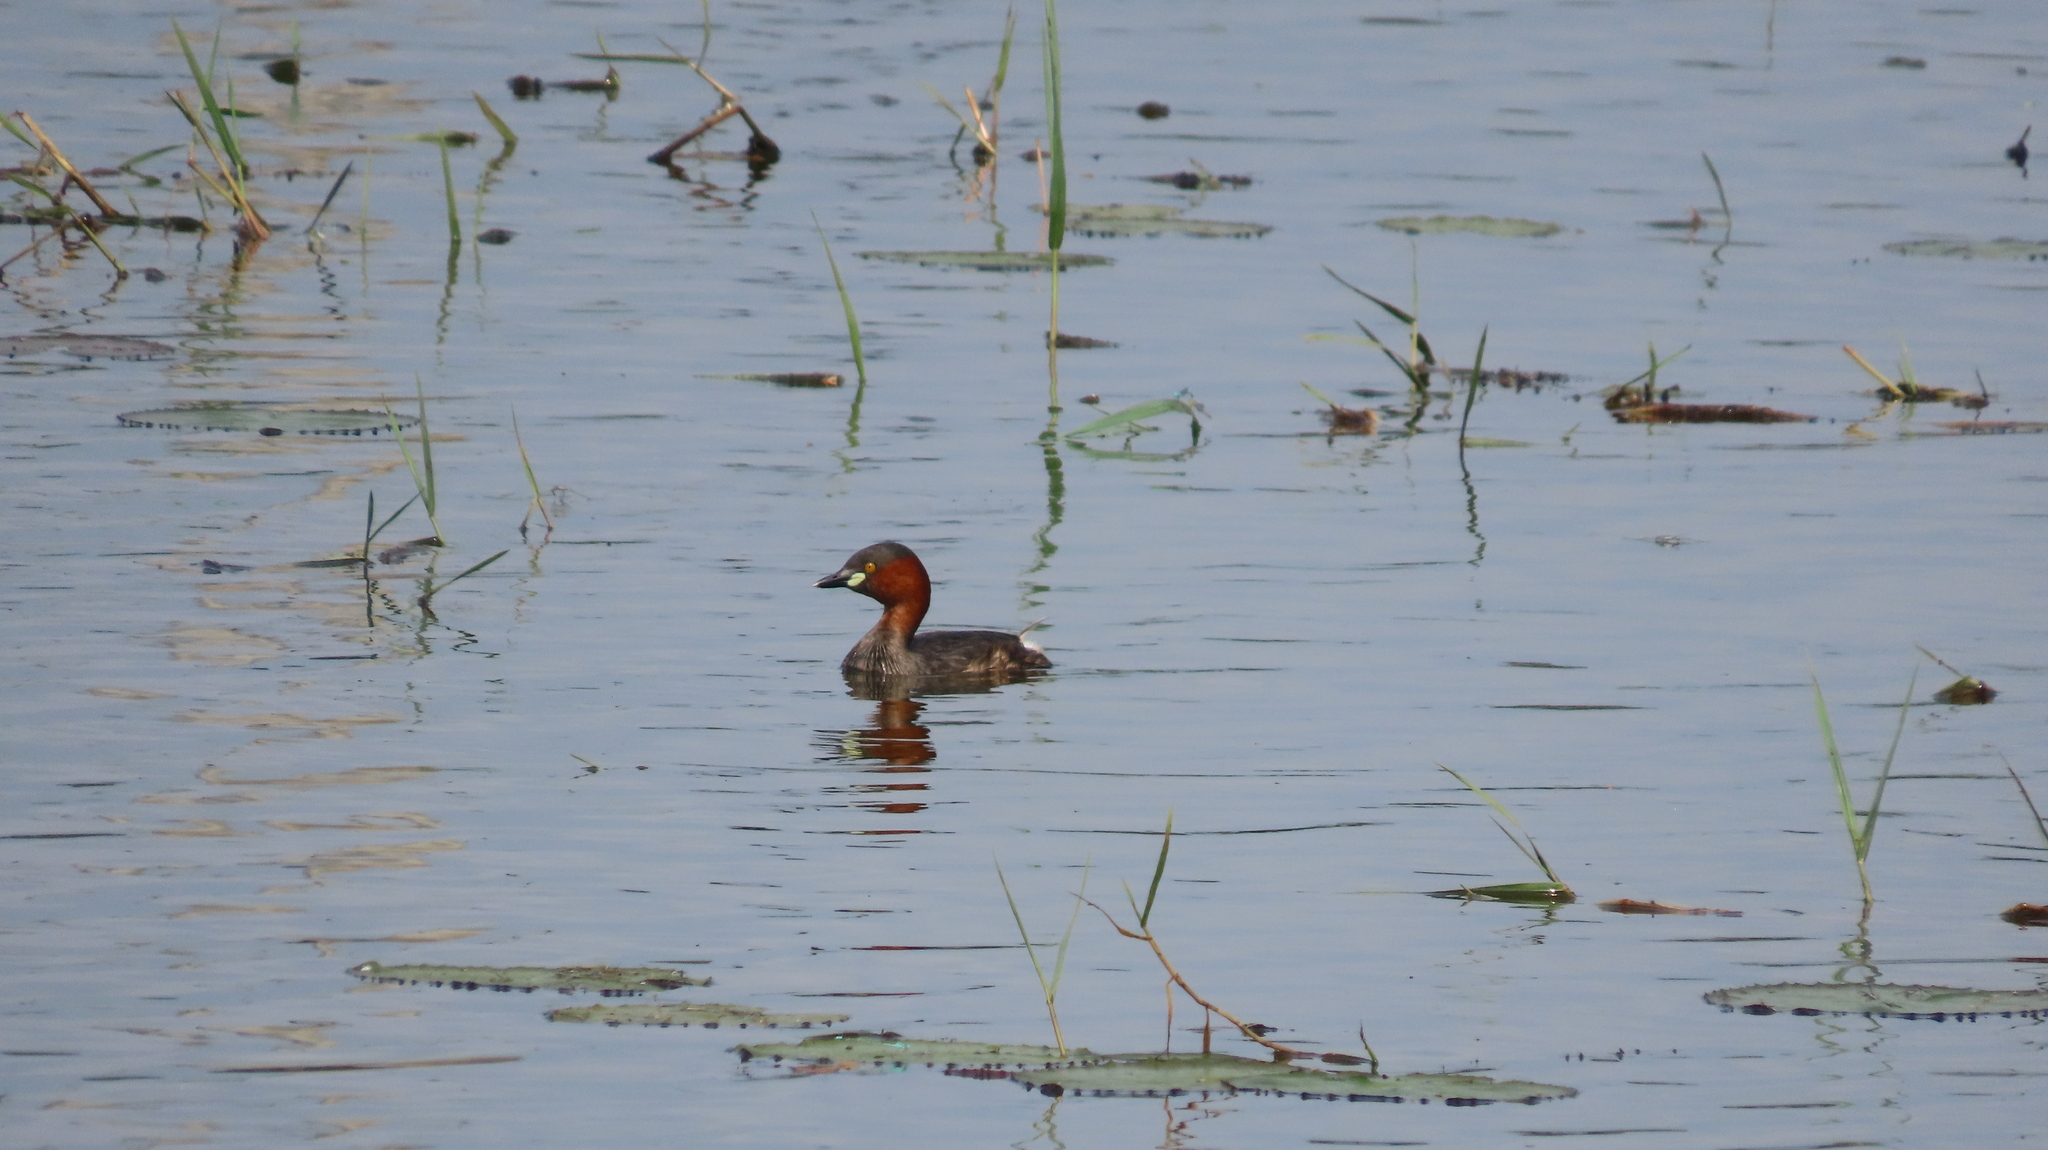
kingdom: Animalia
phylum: Chordata
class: Aves
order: Podicipediformes
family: Podicipedidae
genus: Tachybaptus
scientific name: Tachybaptus ruficollis
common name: Little grebe
